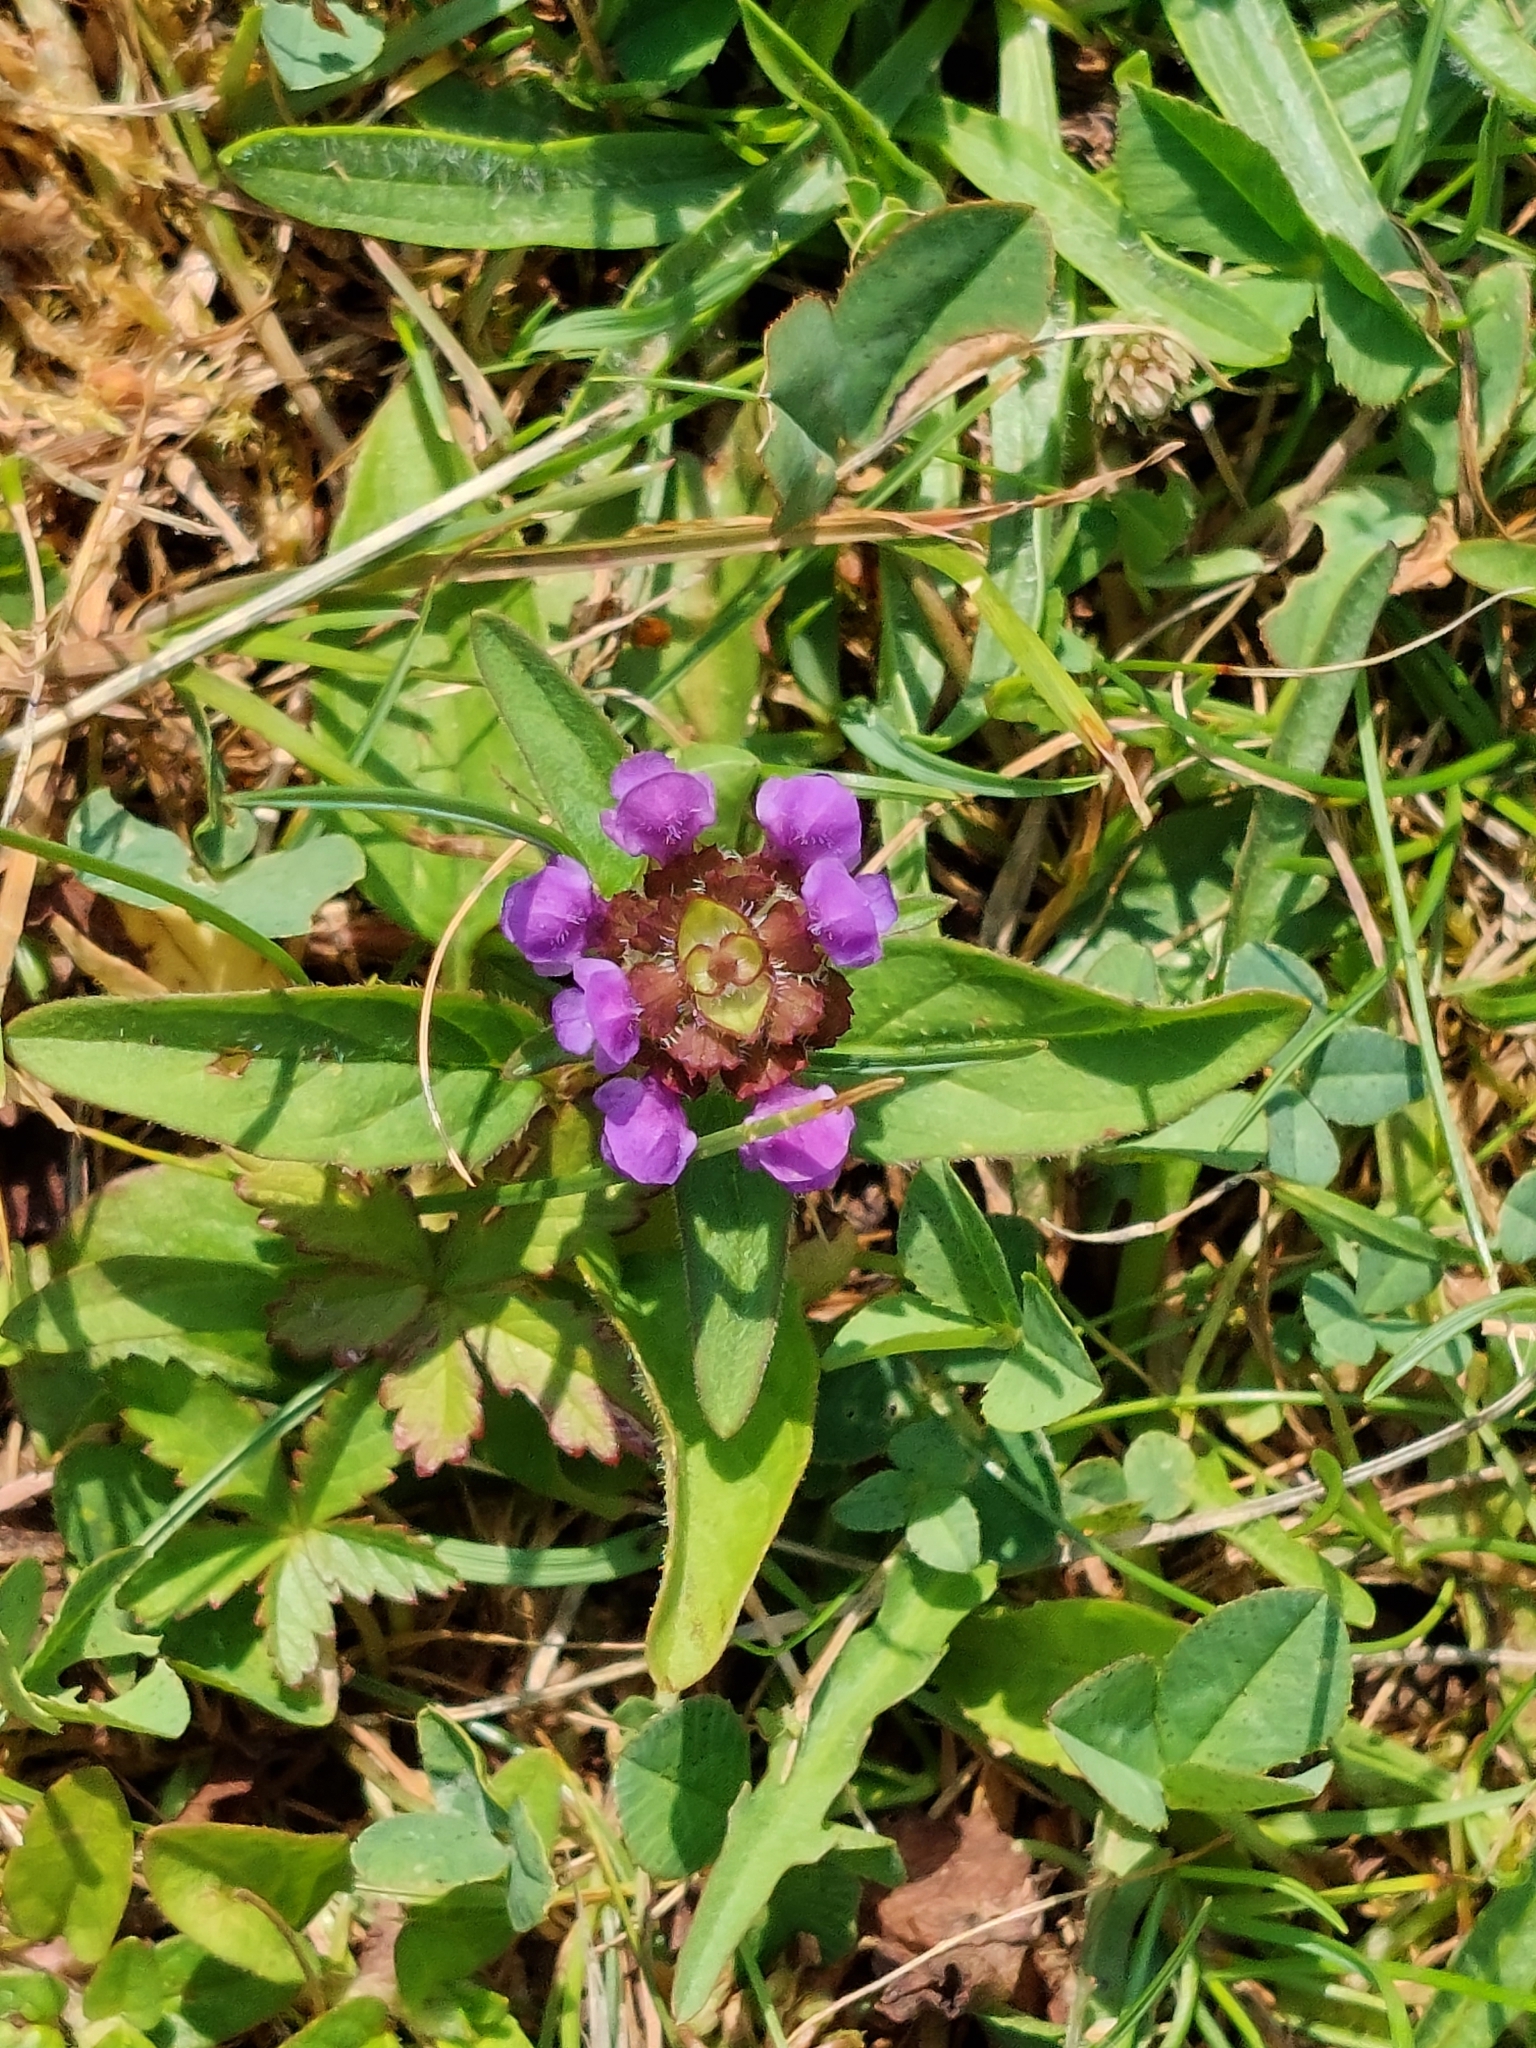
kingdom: Plantae
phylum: Tracheophyta
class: Magnoliopsida
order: Lamiales
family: Lamiaceae
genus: Prunella
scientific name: Prunella vulgaris
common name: Heal-all
